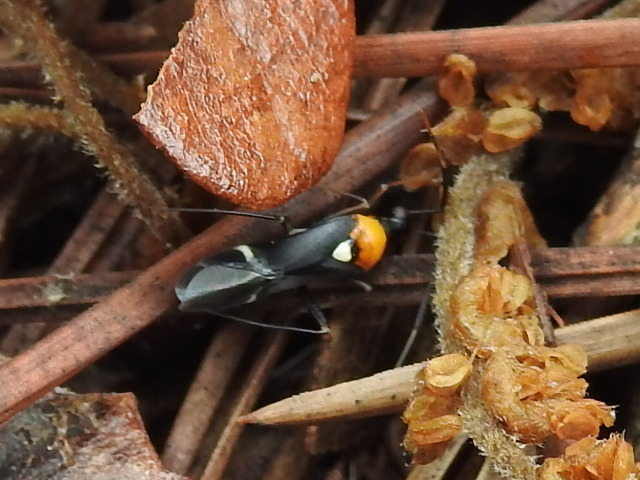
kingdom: Animalia
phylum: Arthropoda
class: Insecta
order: Hemiptera
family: Miridae
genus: Pseudoxenetus
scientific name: Pseudoxenetus regalis
